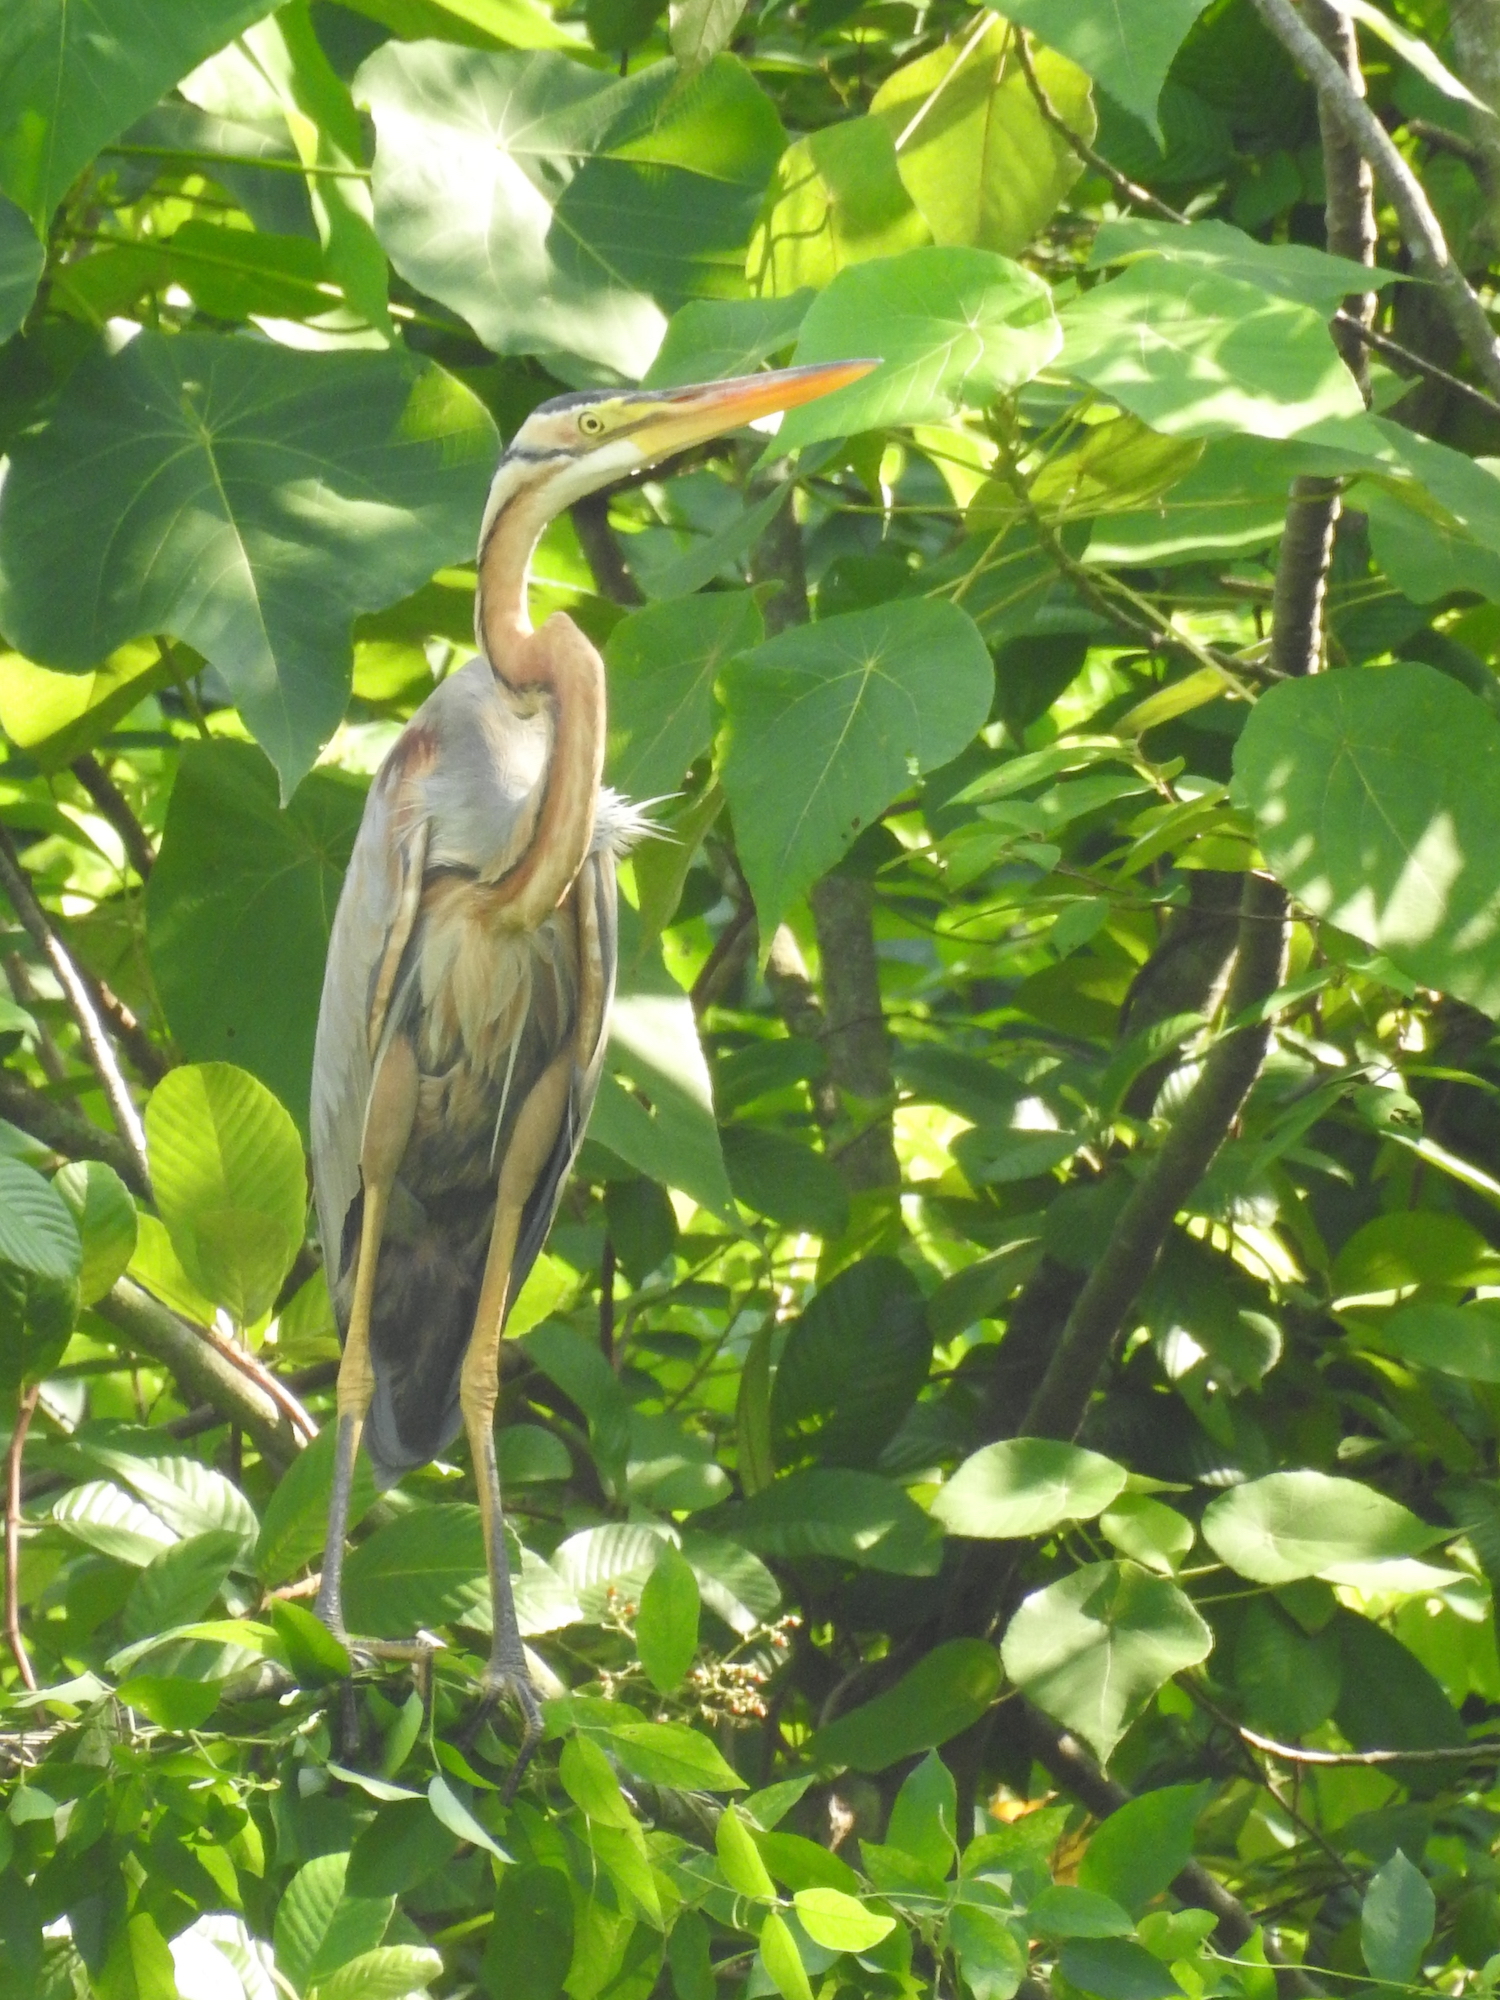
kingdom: Animalia
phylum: Chordata
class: Aves
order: Pelecaniformes
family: Ardeidae
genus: Ardea
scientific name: Ardea purpurea
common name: Purple heron
